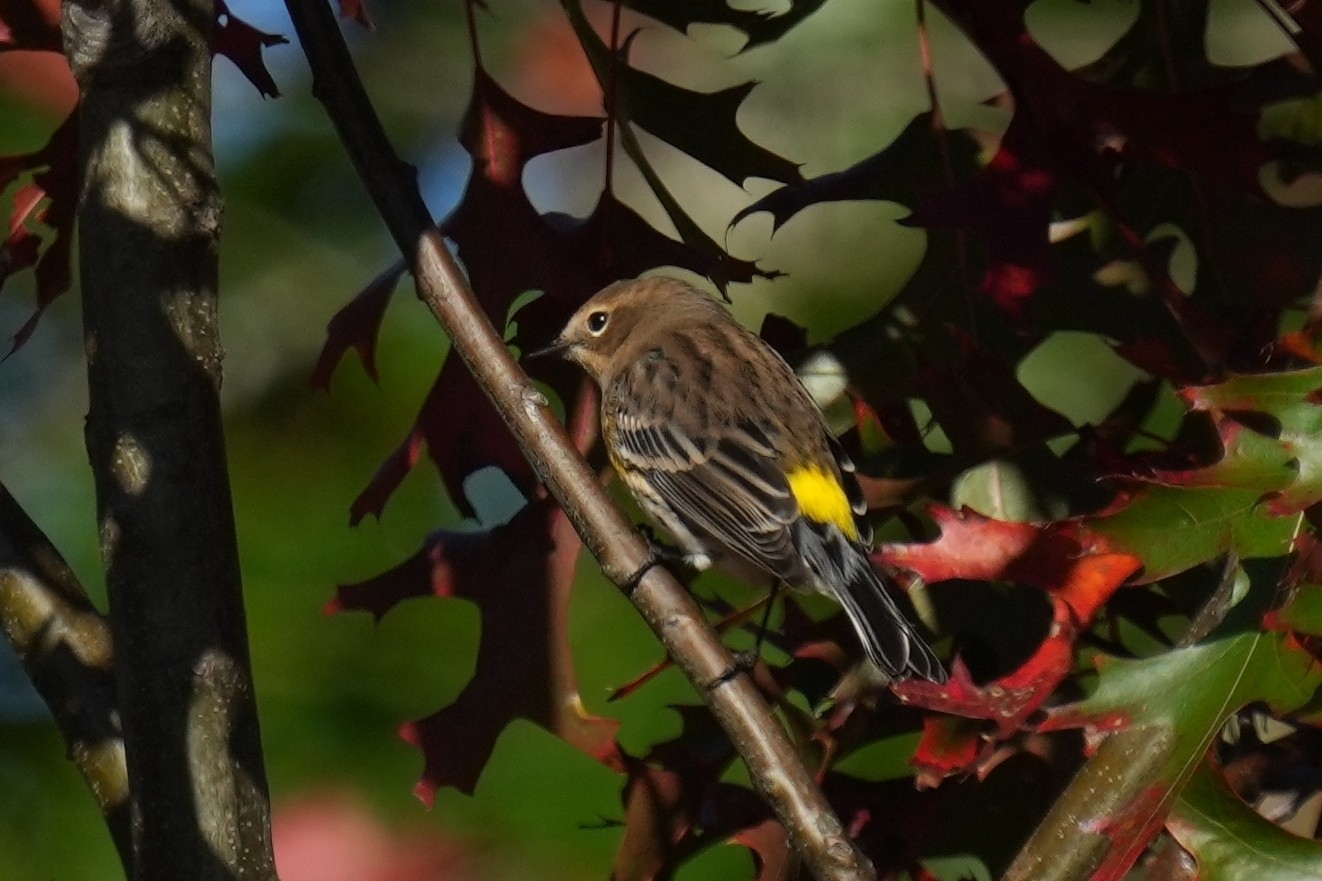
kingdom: Animalia
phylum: Chordata
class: Aves
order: Passeriformes
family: Parulidae
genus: Setophaga
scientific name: Setophaga coronata
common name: Myrtle warbler
